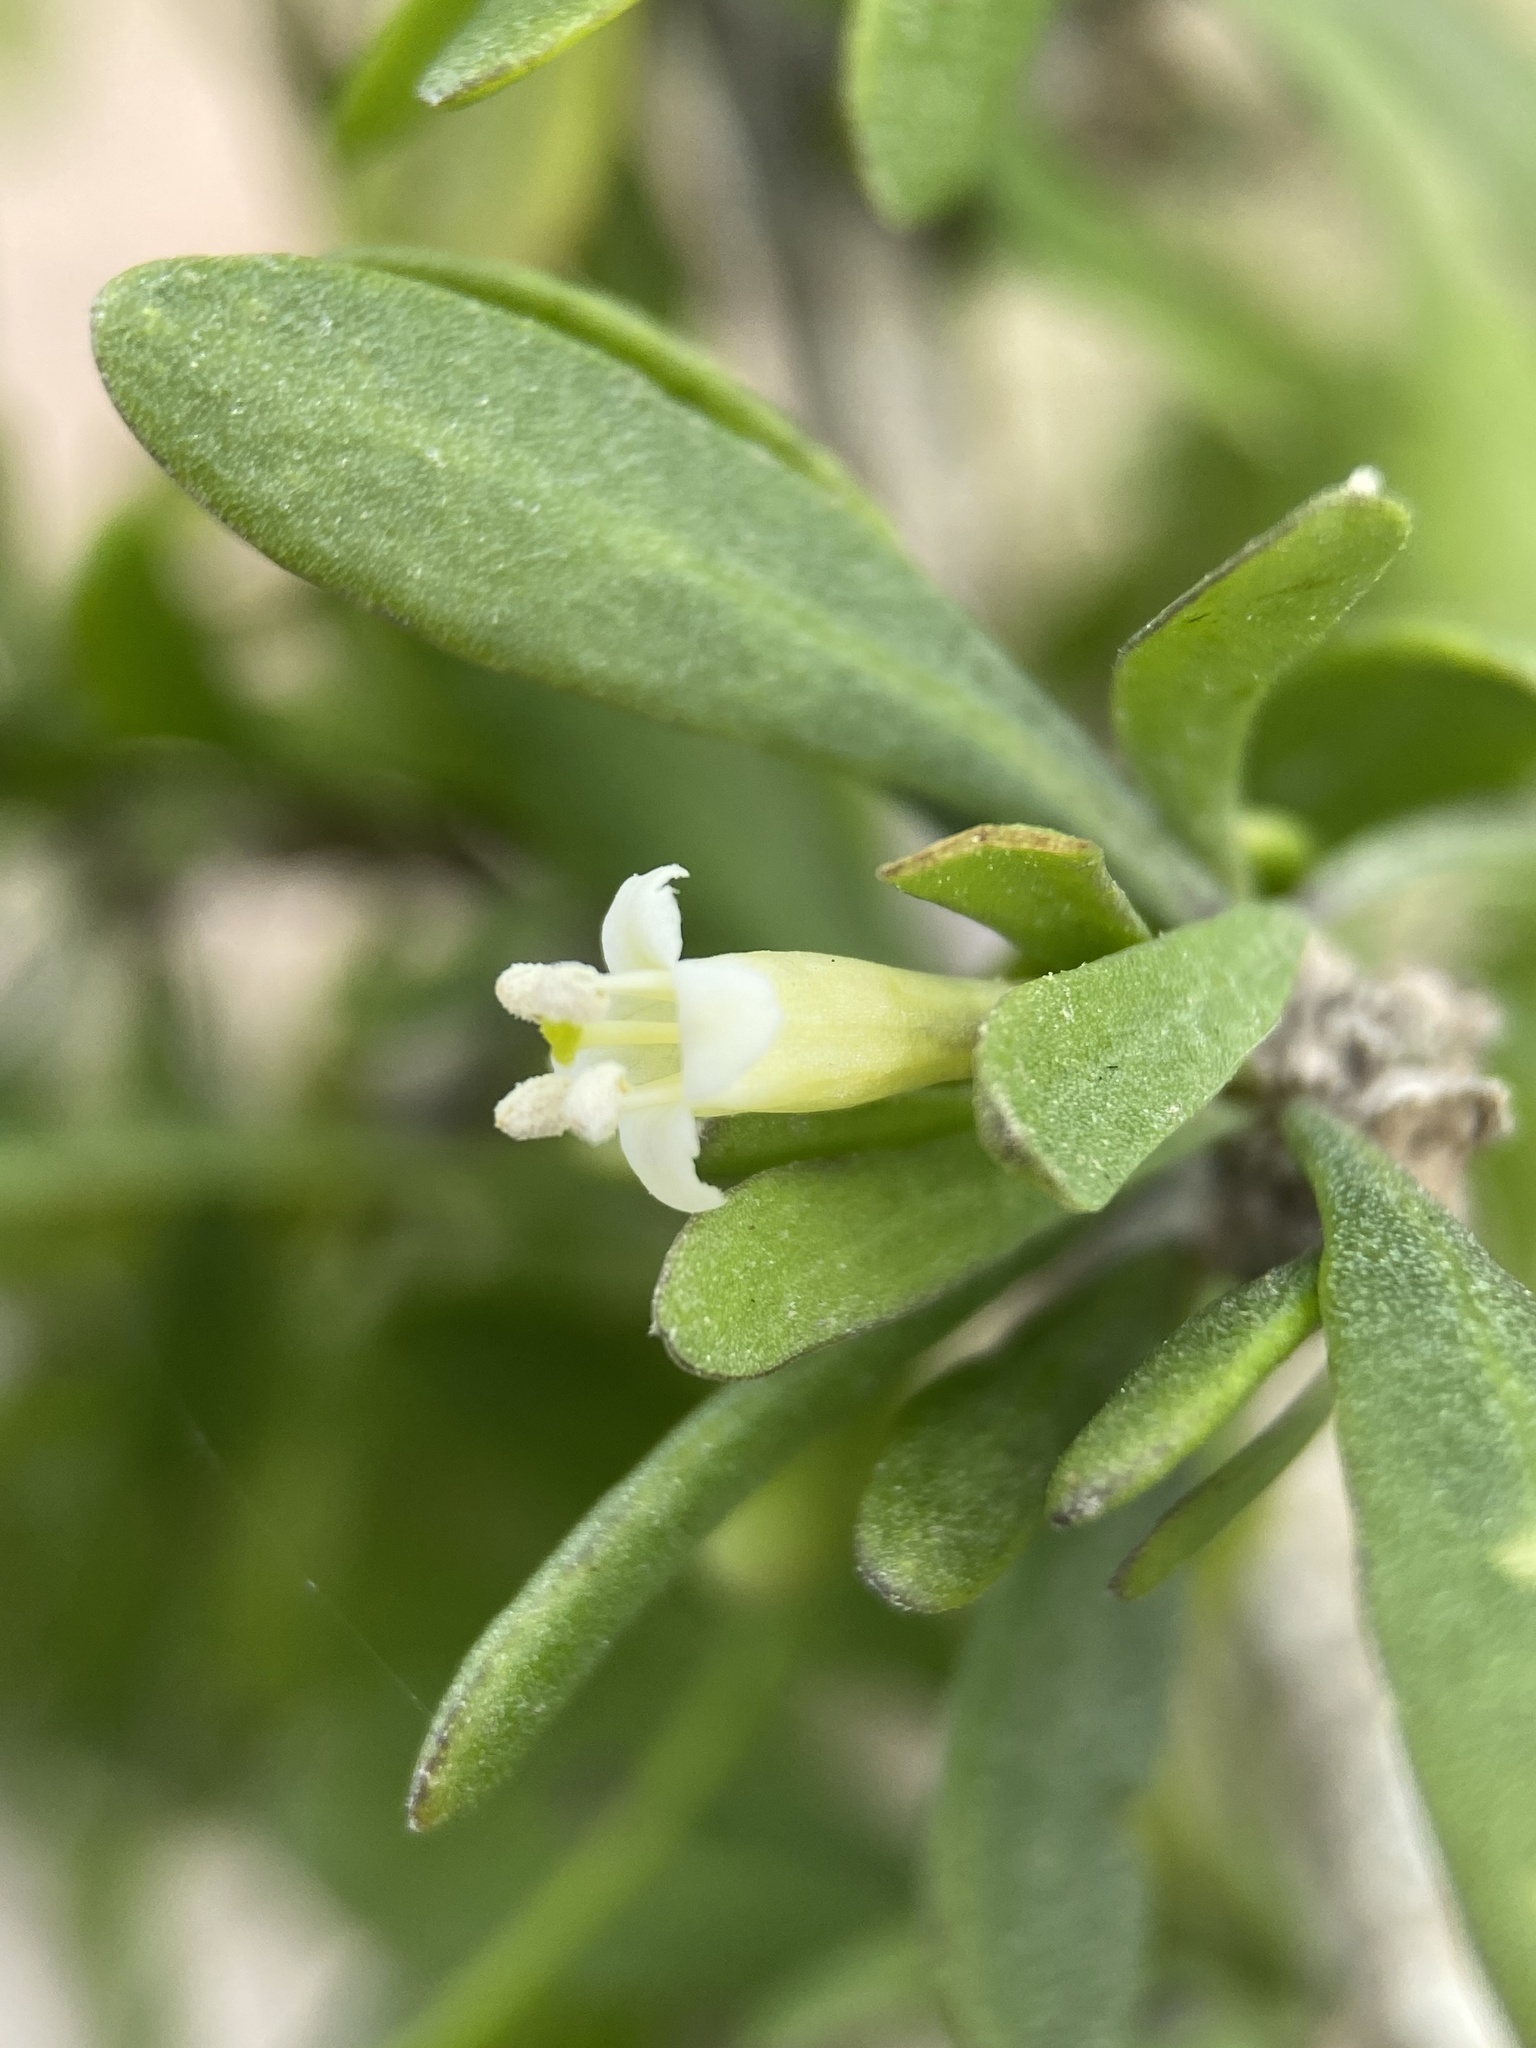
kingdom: Plantae
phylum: Tracheophyta
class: Magnoliopsida
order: Solanales
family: Solanaceae
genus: Lycium
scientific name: Lycium berlandieri
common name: Berlandier wolfberry
